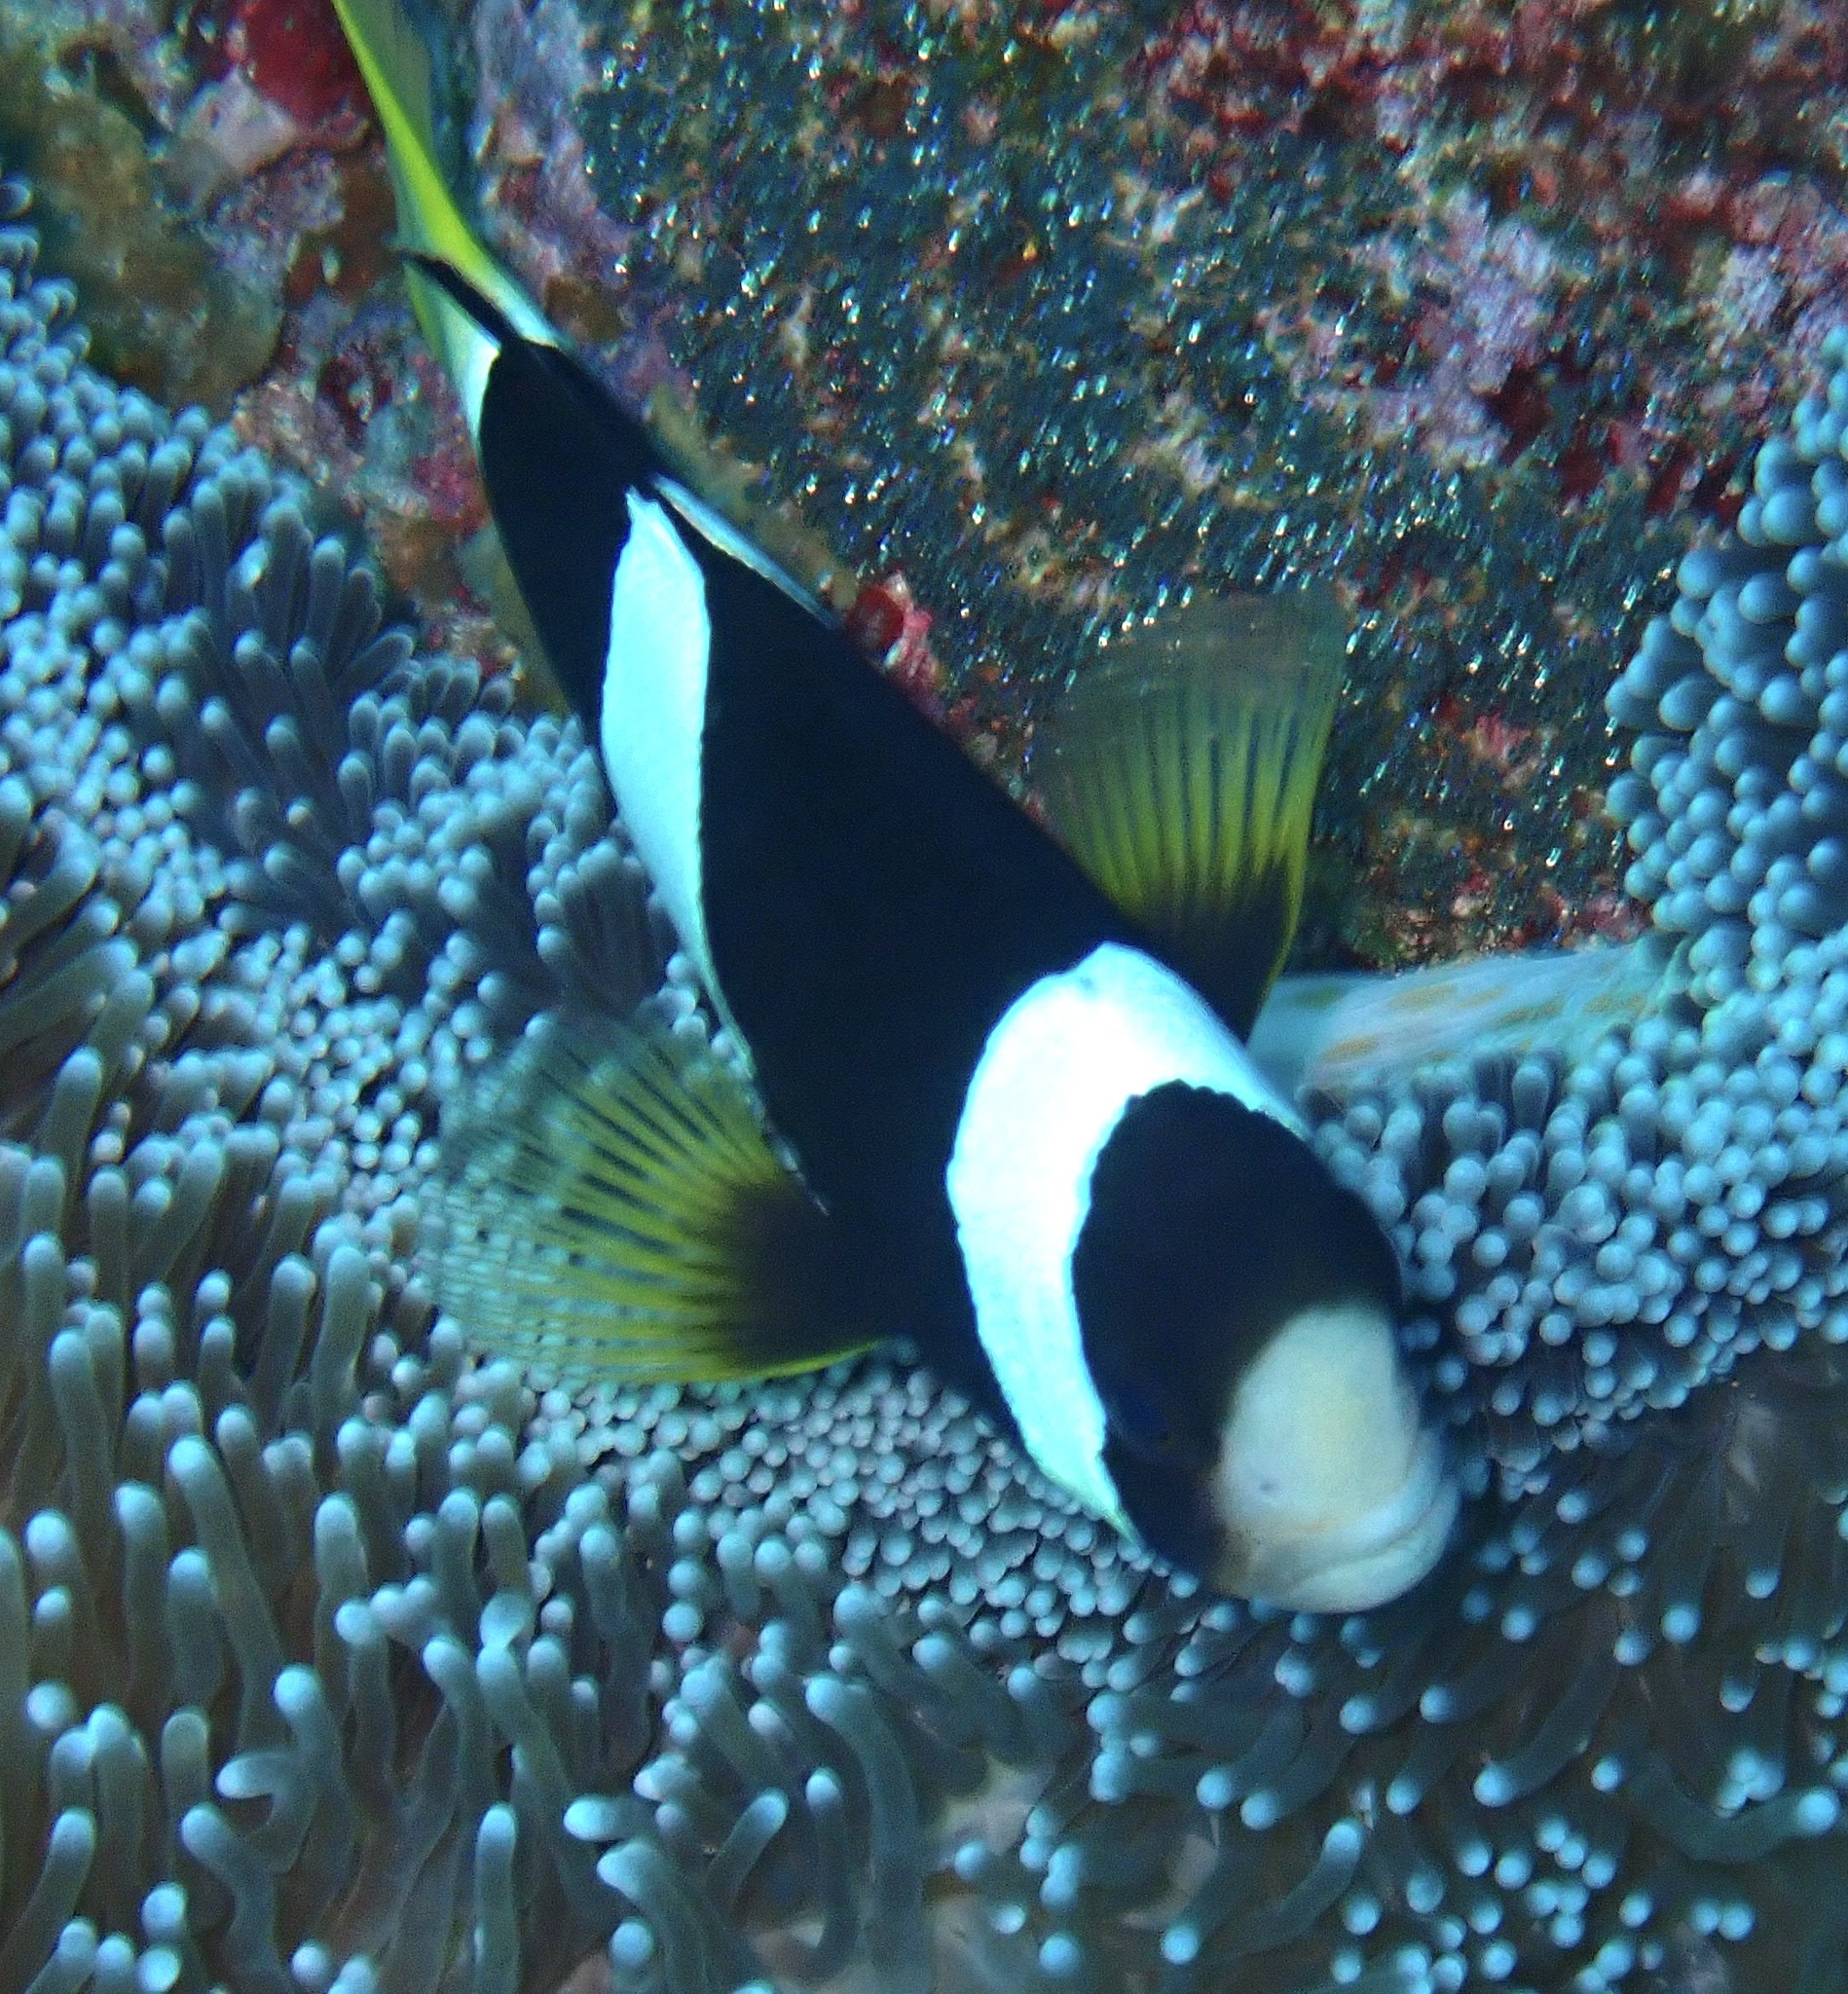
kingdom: Animalia
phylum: Chordata
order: Perciformes
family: Pomacentridae
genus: Amphiprion
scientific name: Amphiprion clarkii
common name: Clark's anemonefish
